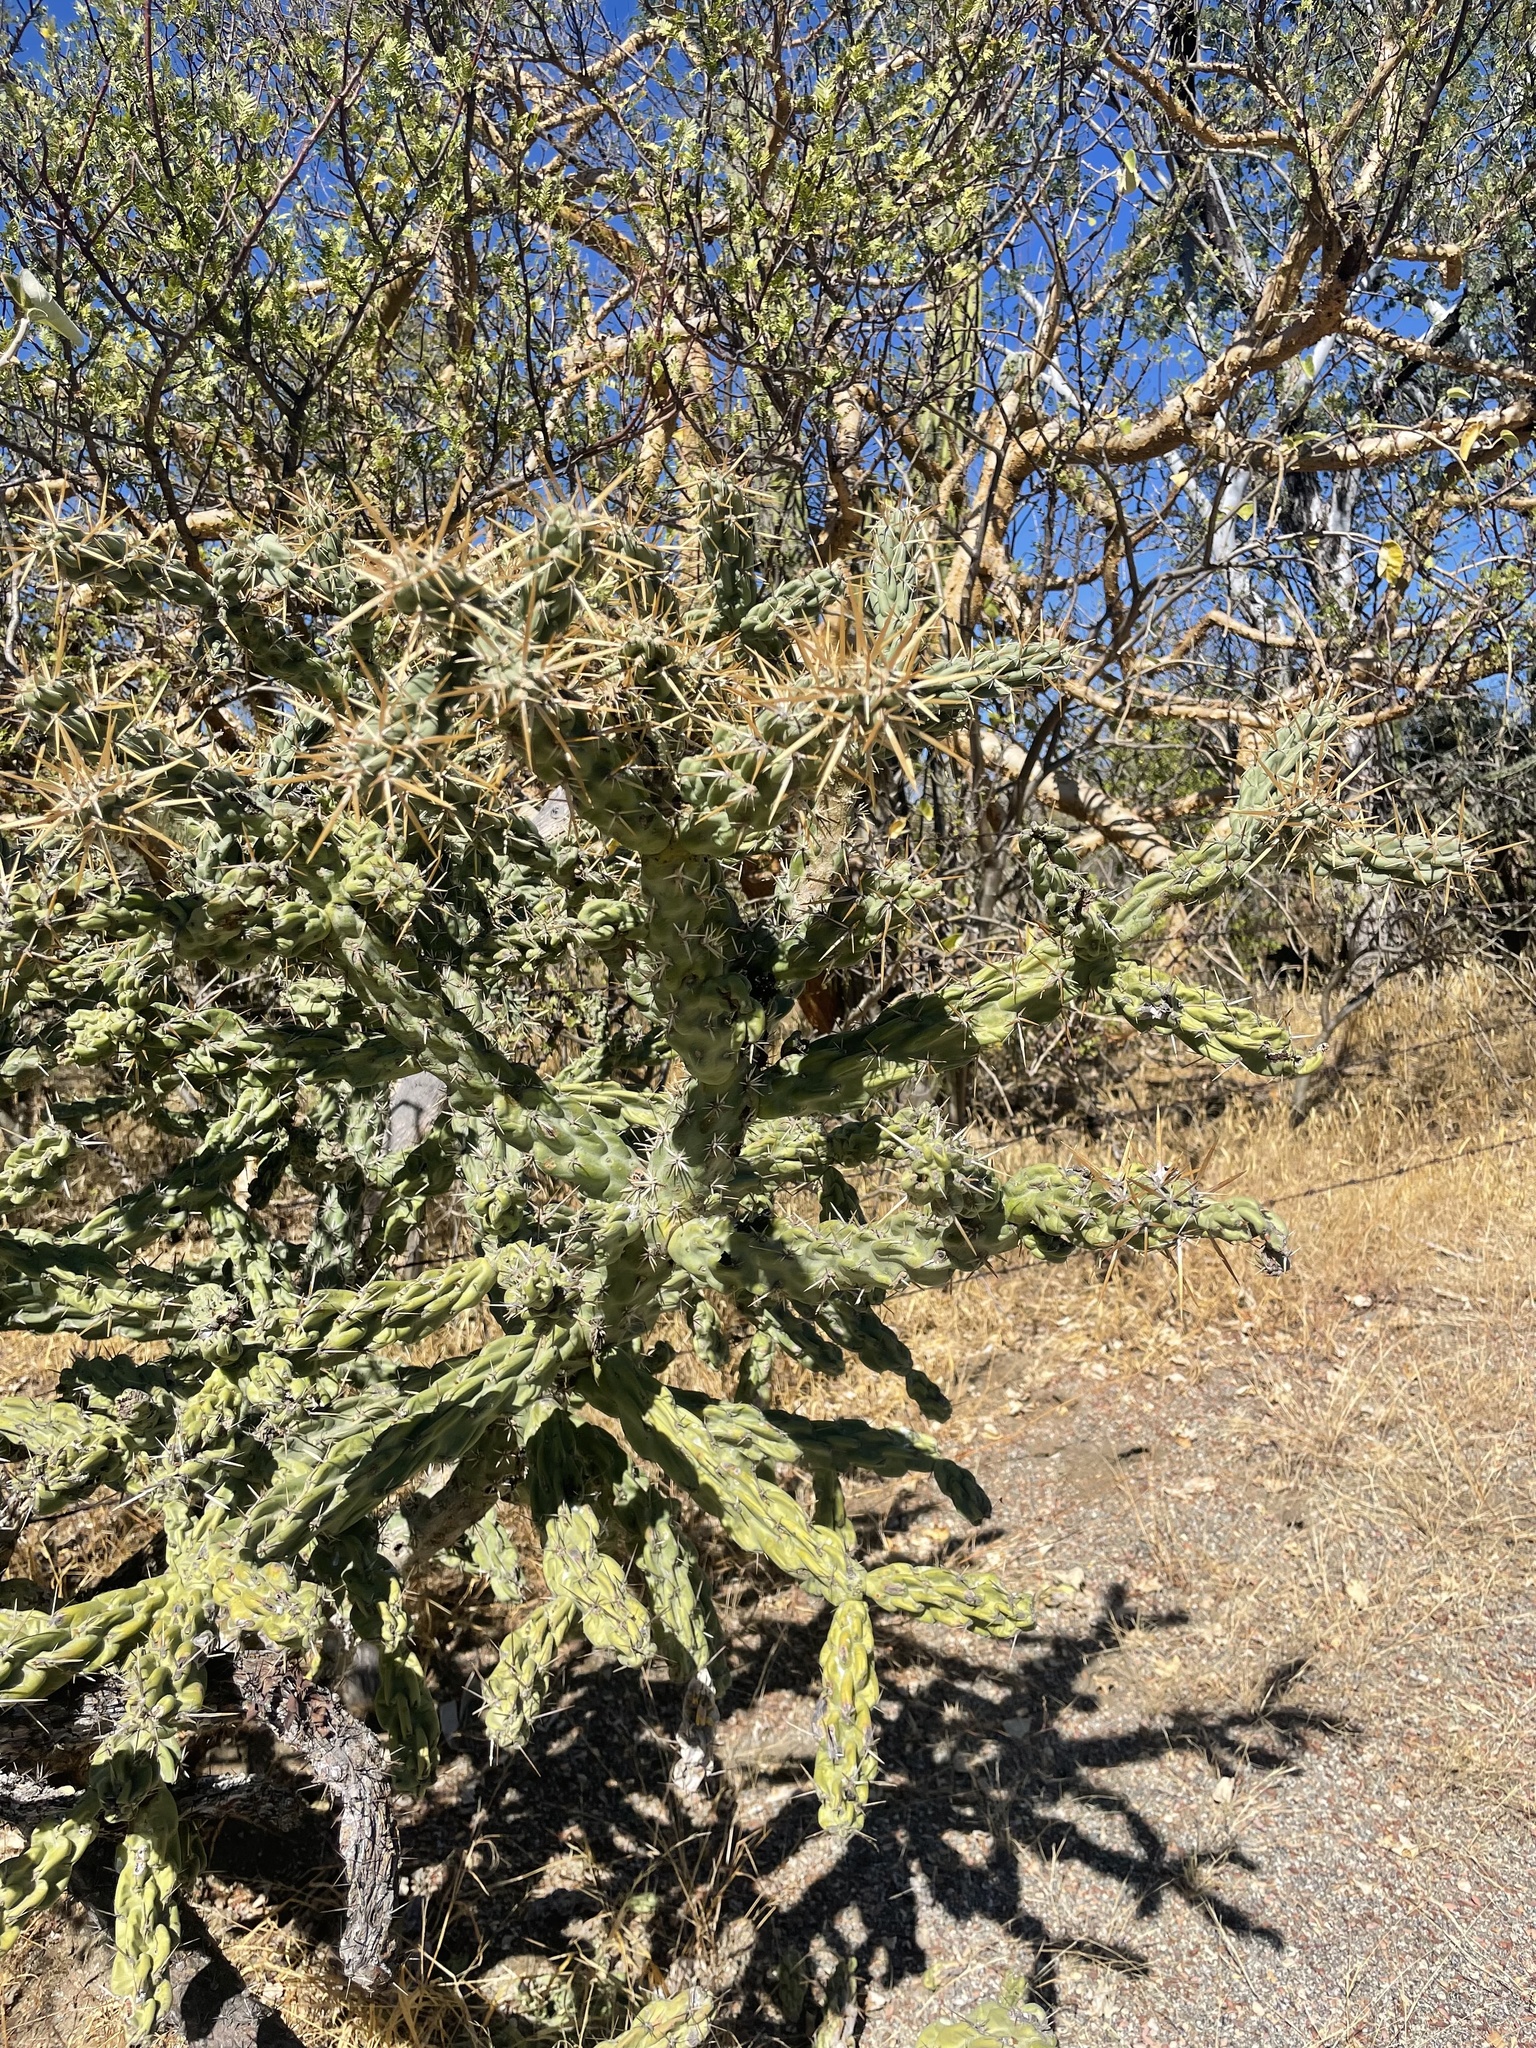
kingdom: Plantae
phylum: Tracheophyta
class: Magnoliopsida
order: Caryophyllales
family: Cactaceae
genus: Cylindropuntia
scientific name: Cylindropuntia cholla
